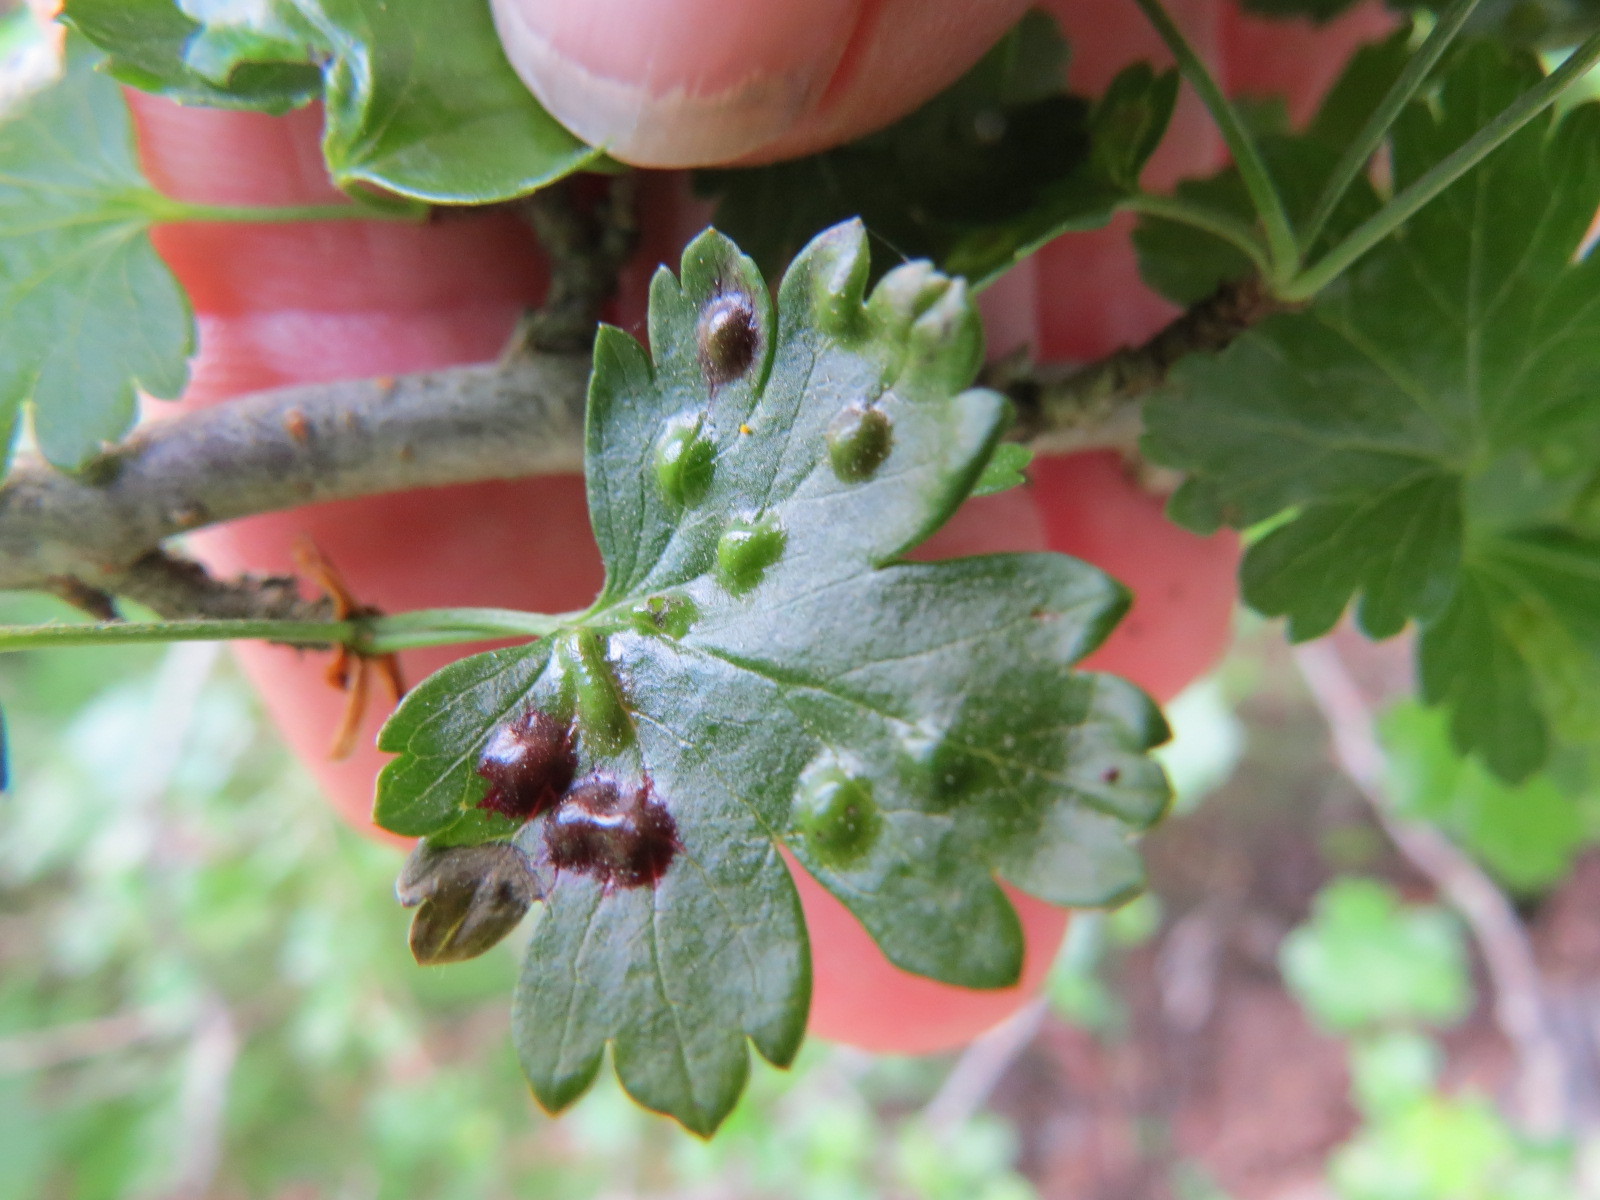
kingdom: Animalia
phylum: Arthropoda
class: Insecta
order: Diptera
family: Cecidomyiidae
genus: Ribesia
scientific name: Ribesia sarae
